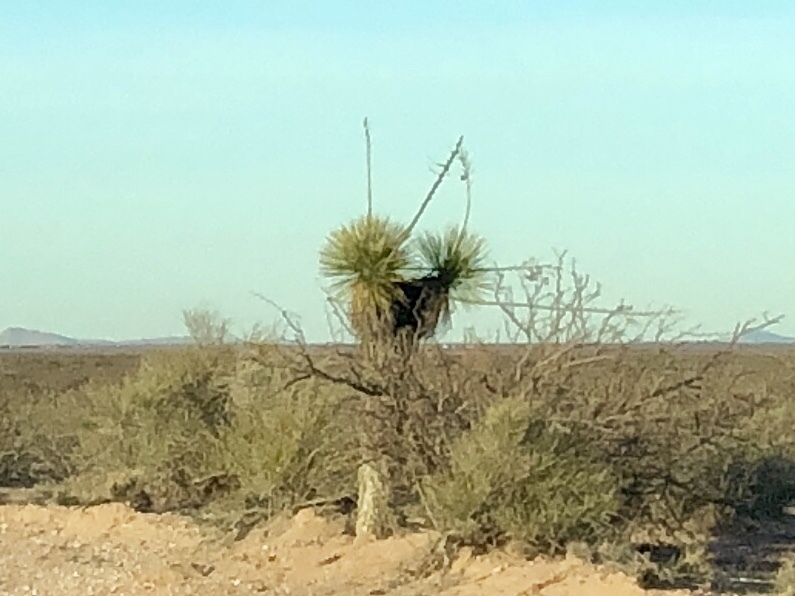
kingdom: Plantae
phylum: Tracheophyta
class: Liliopsida
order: Asparagales
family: Asparagaceae
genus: Yucca
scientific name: Yucca elata
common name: Palmella
